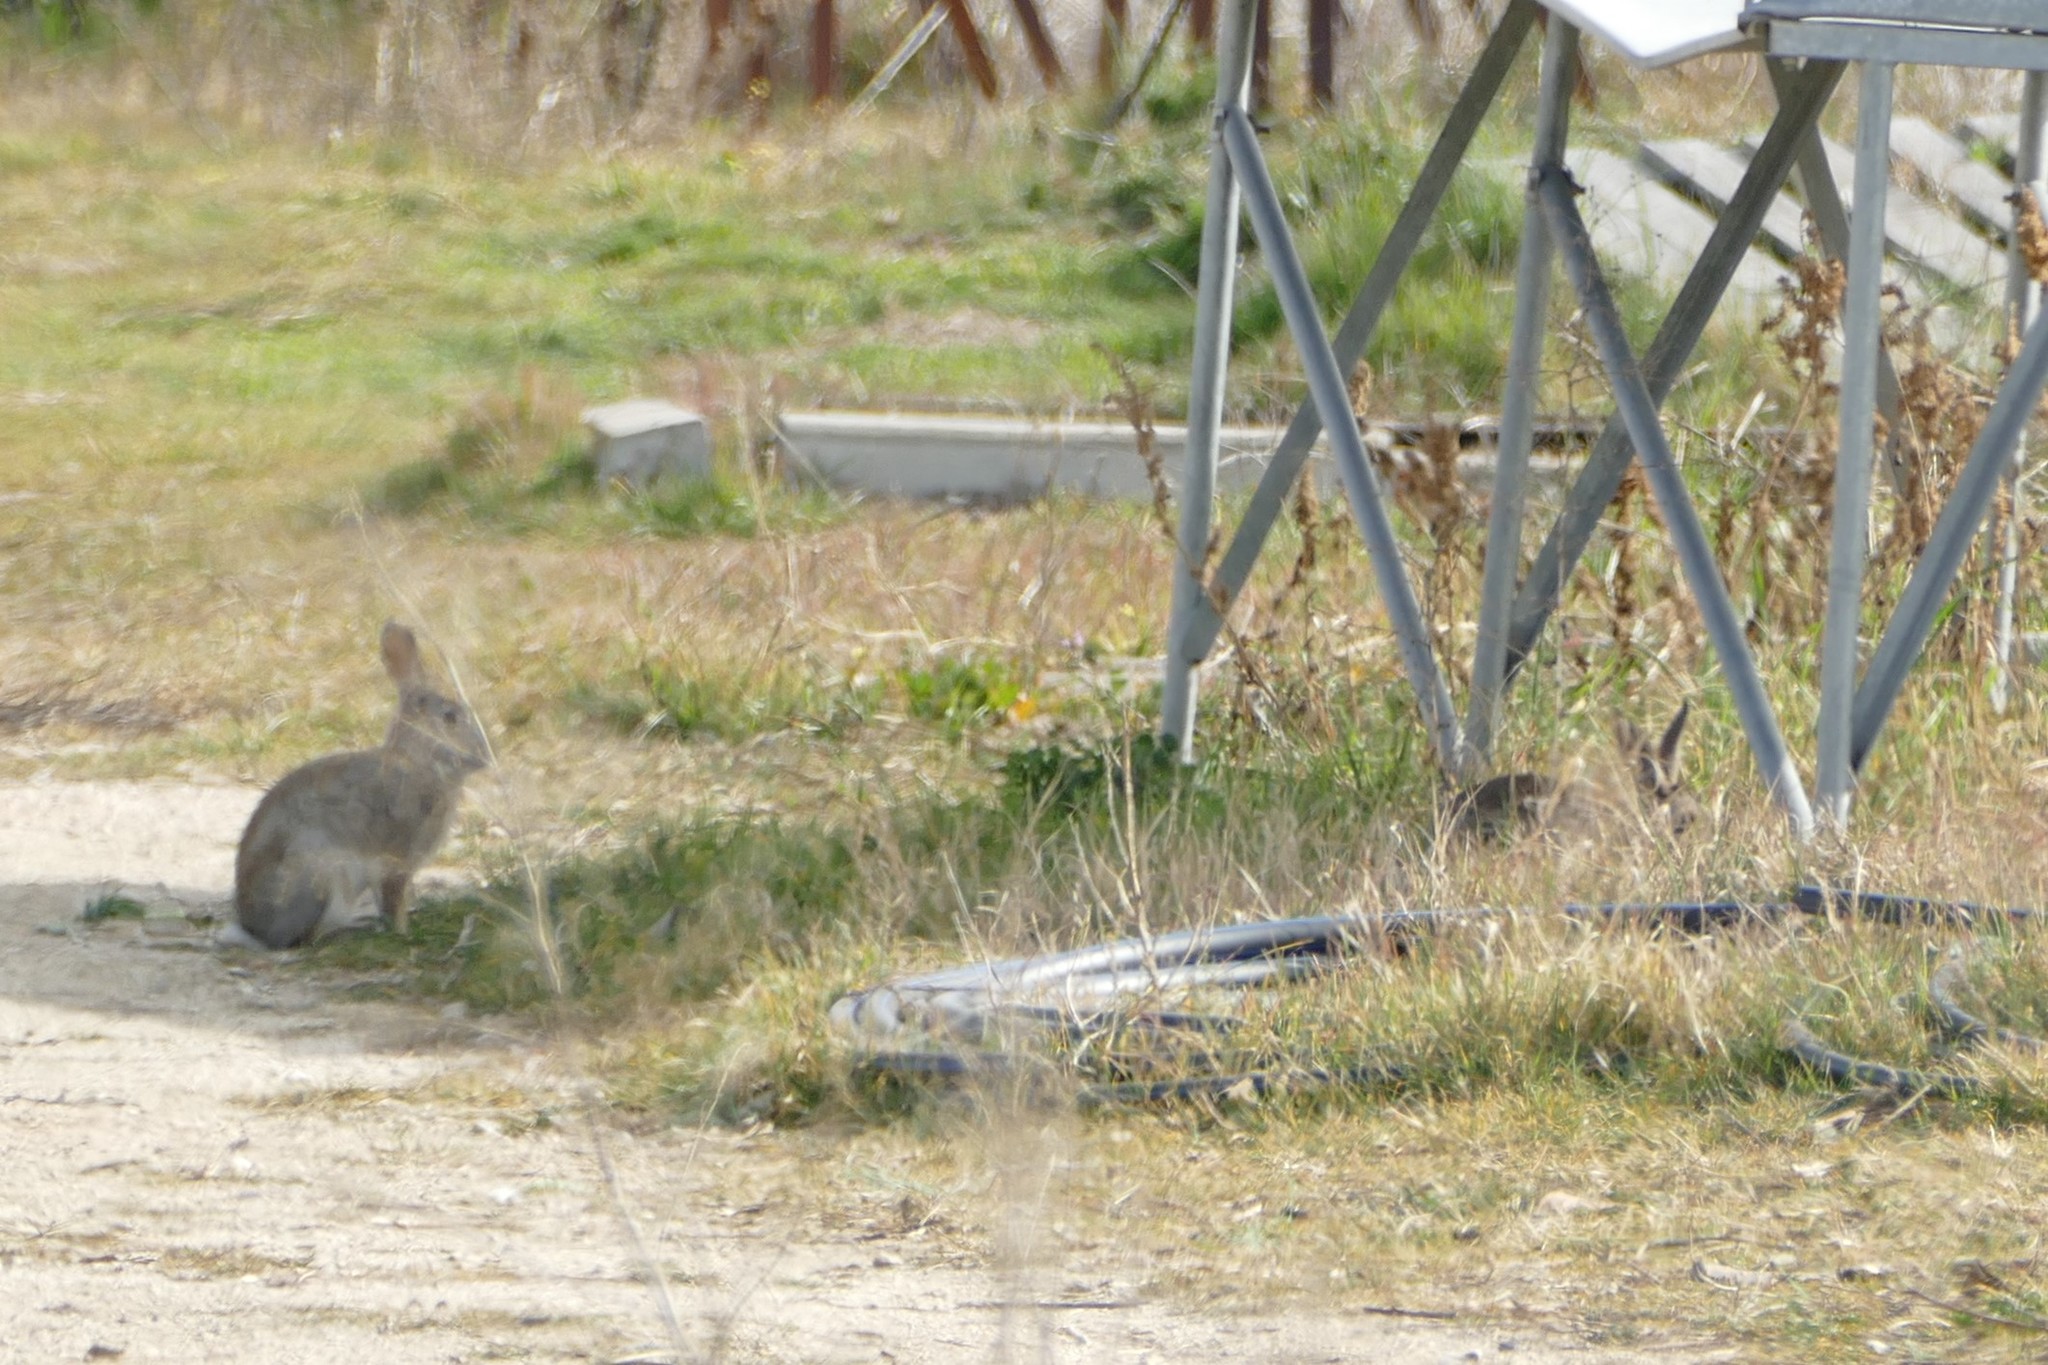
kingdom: Animalia
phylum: Chordata
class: Mammalia
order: Lagomorpha
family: Leporidae
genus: Oryctolagus
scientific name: Oryctolagus cuniculus
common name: European rabbit
